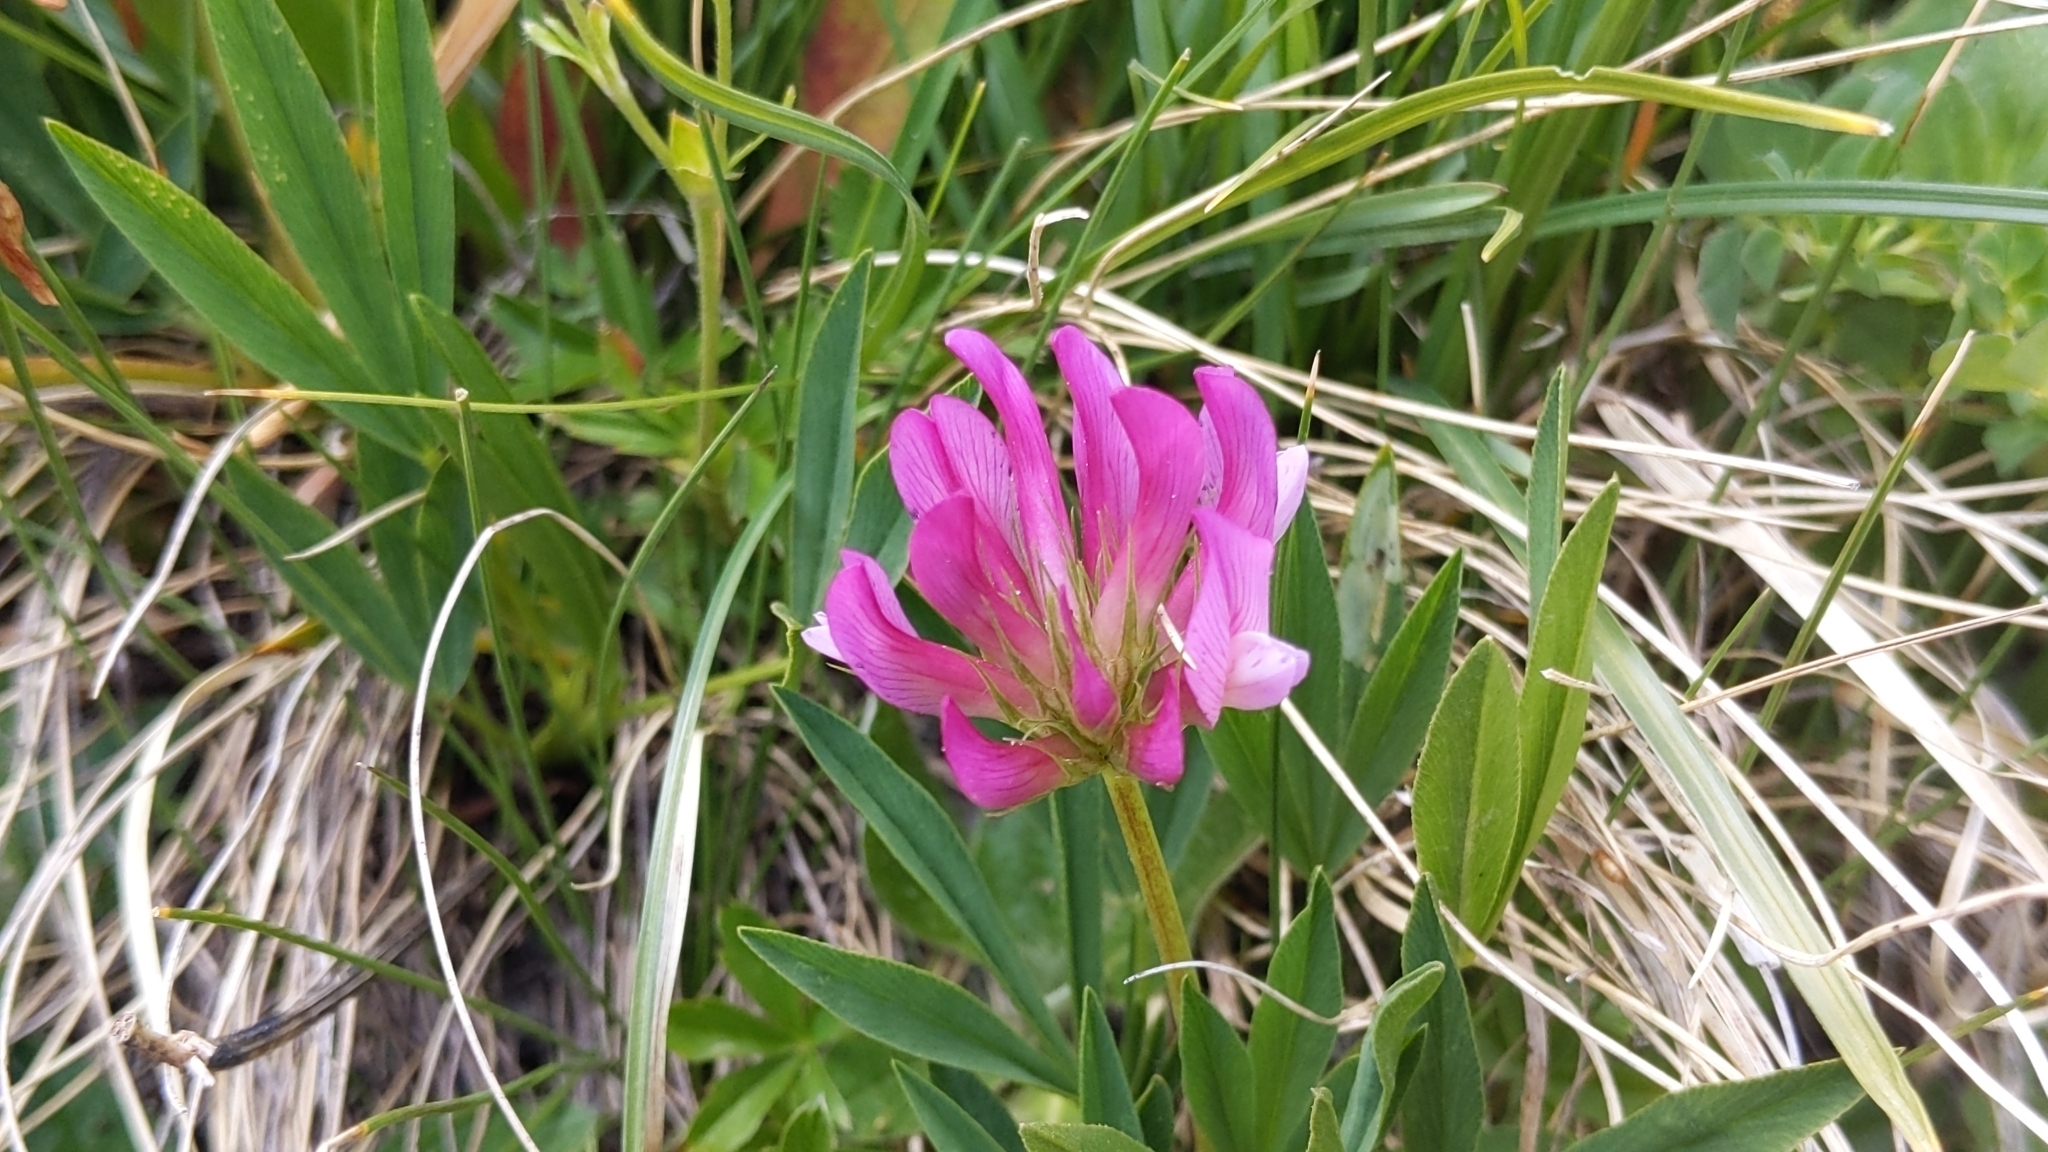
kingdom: Plantae
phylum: Tracheophyta
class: Magnoliopsida
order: Fabales
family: Fabaceae
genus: Trifolium
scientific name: Trifolium alpinum
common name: Alpine clover
